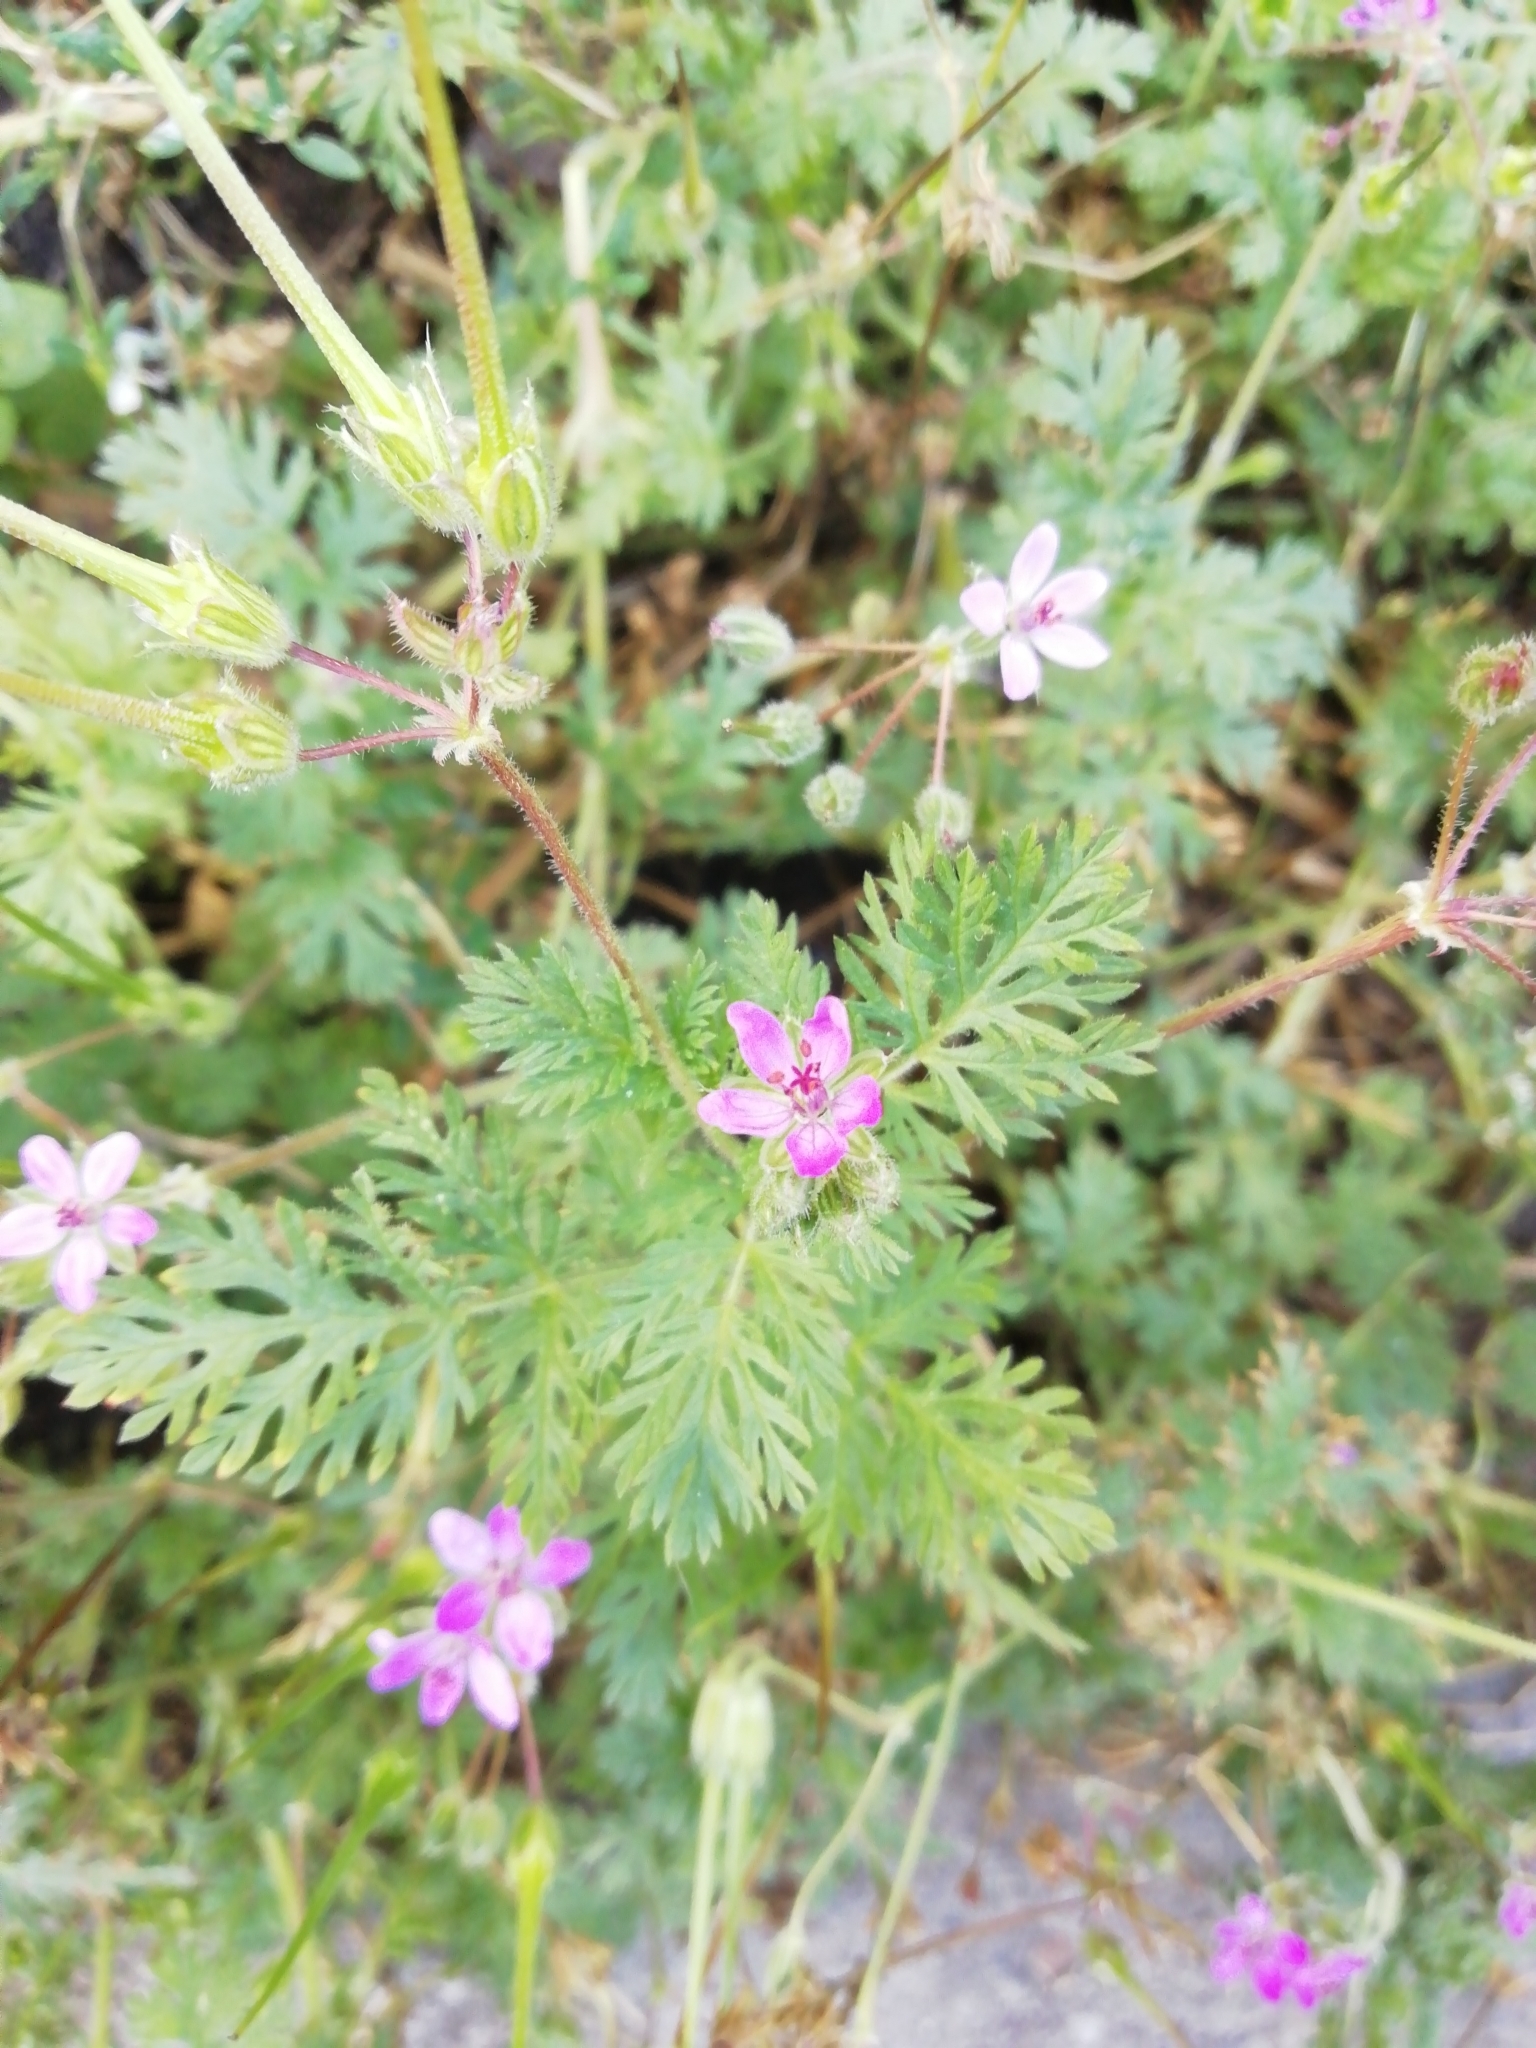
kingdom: Plantae
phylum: Tracheophyta
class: Magnoliopsida
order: Geraniales
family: Geraniaceae
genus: Erodium
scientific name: Erodium cicutarium
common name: Common stork's-bill
